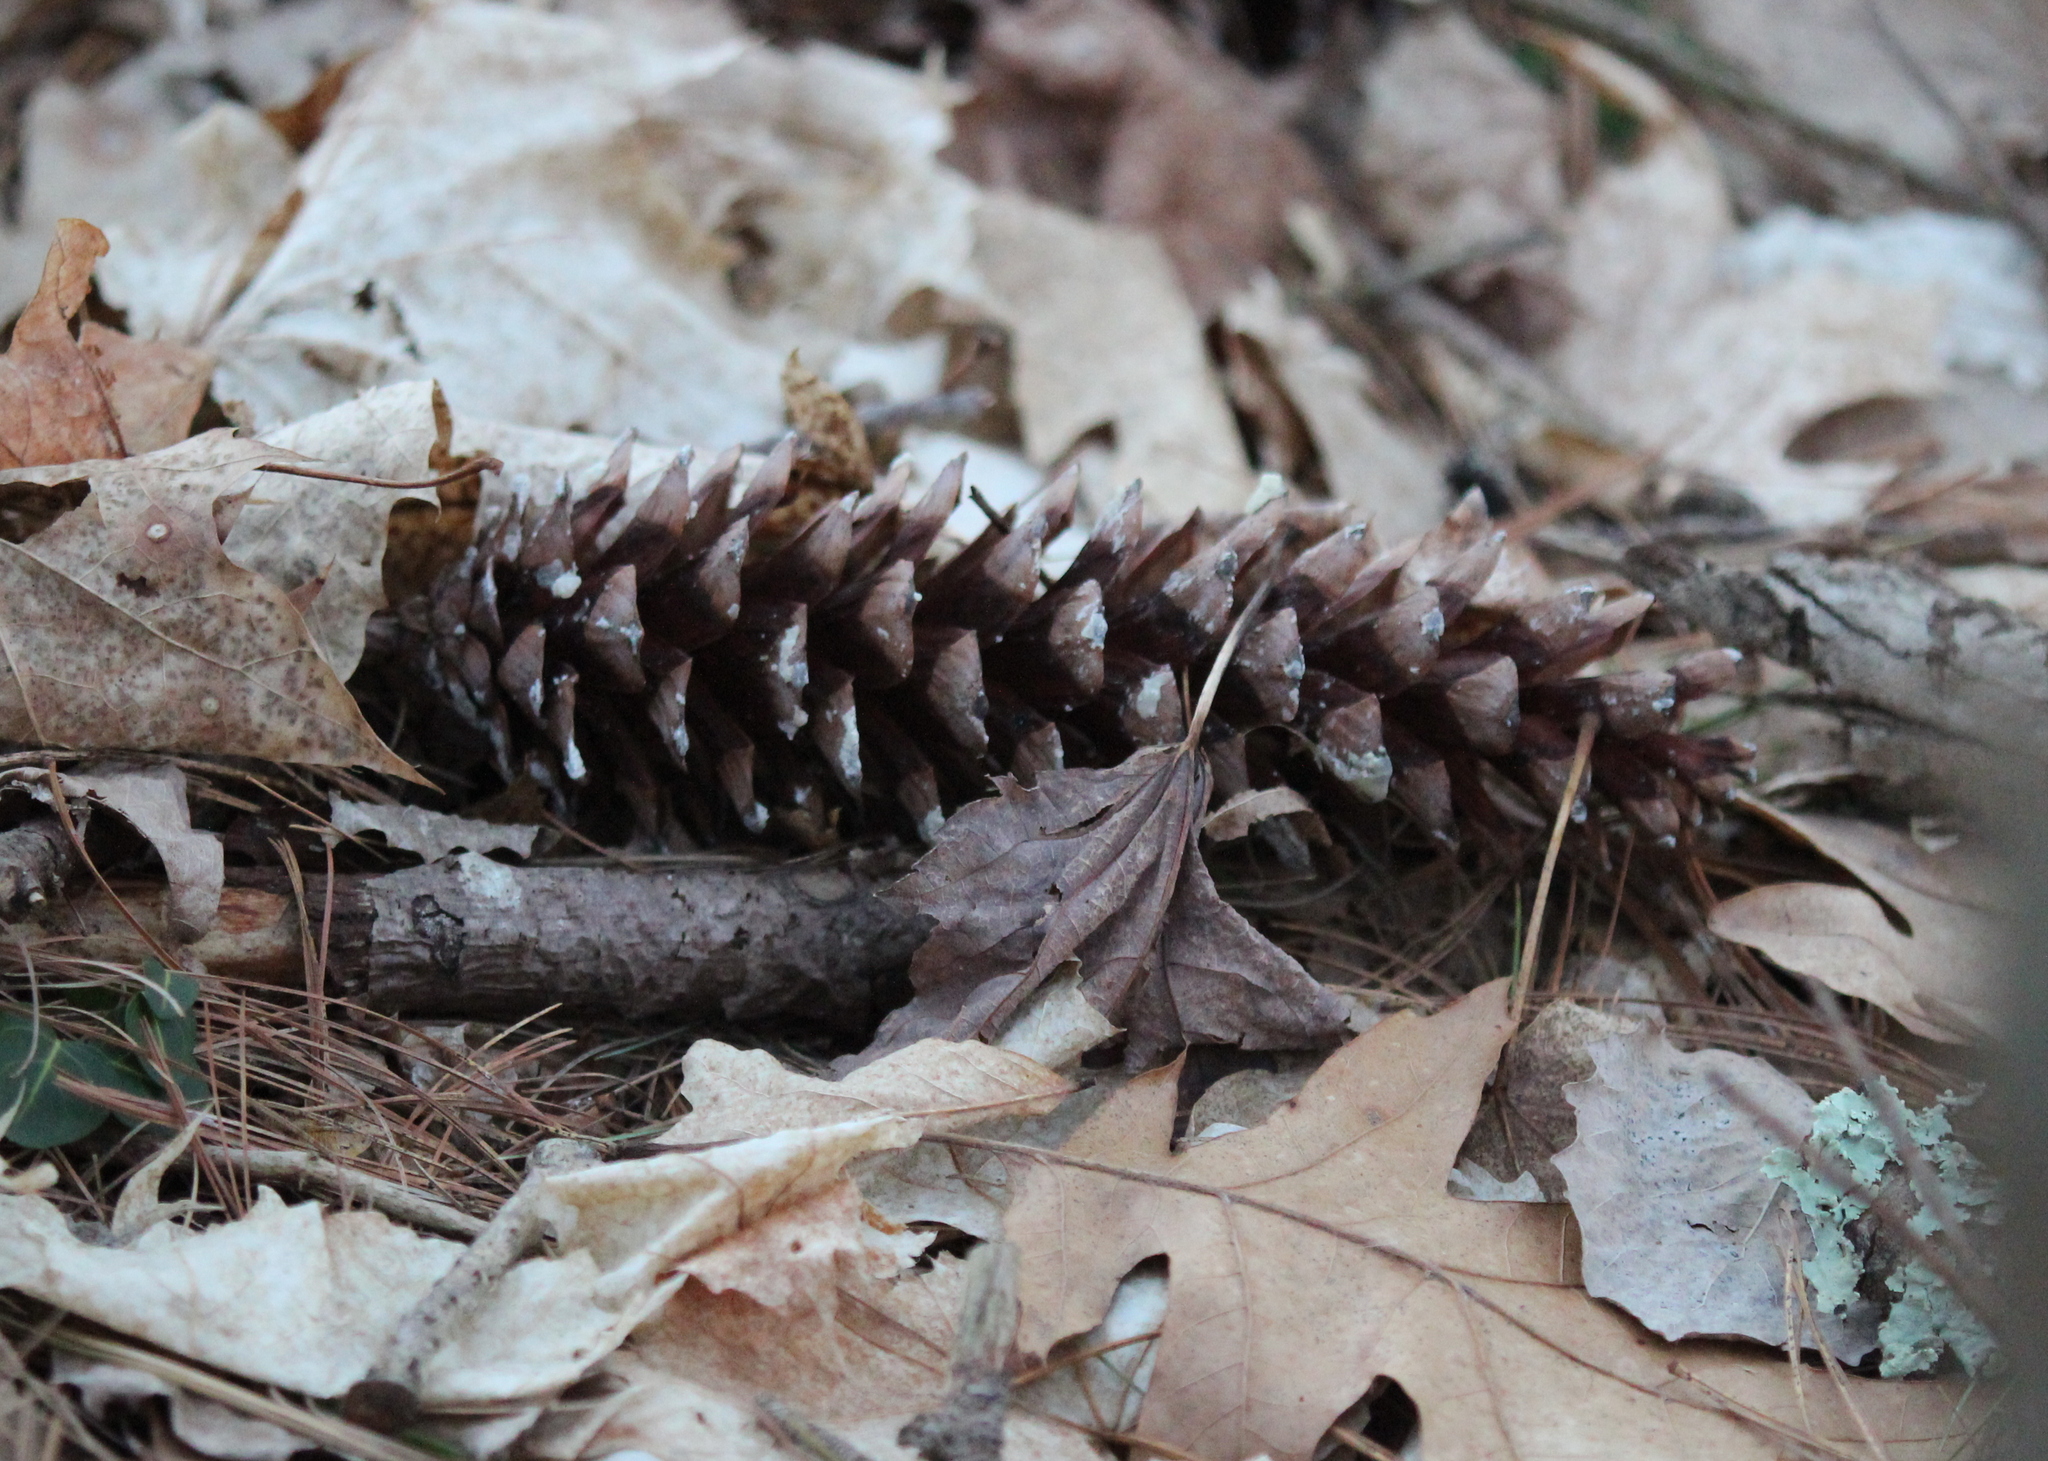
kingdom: Plantae
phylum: Tracheophyta
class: Pinopsida
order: Pinales
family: Pinaceae
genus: Pinus
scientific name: Pinus strobus
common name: Weymouth pine
